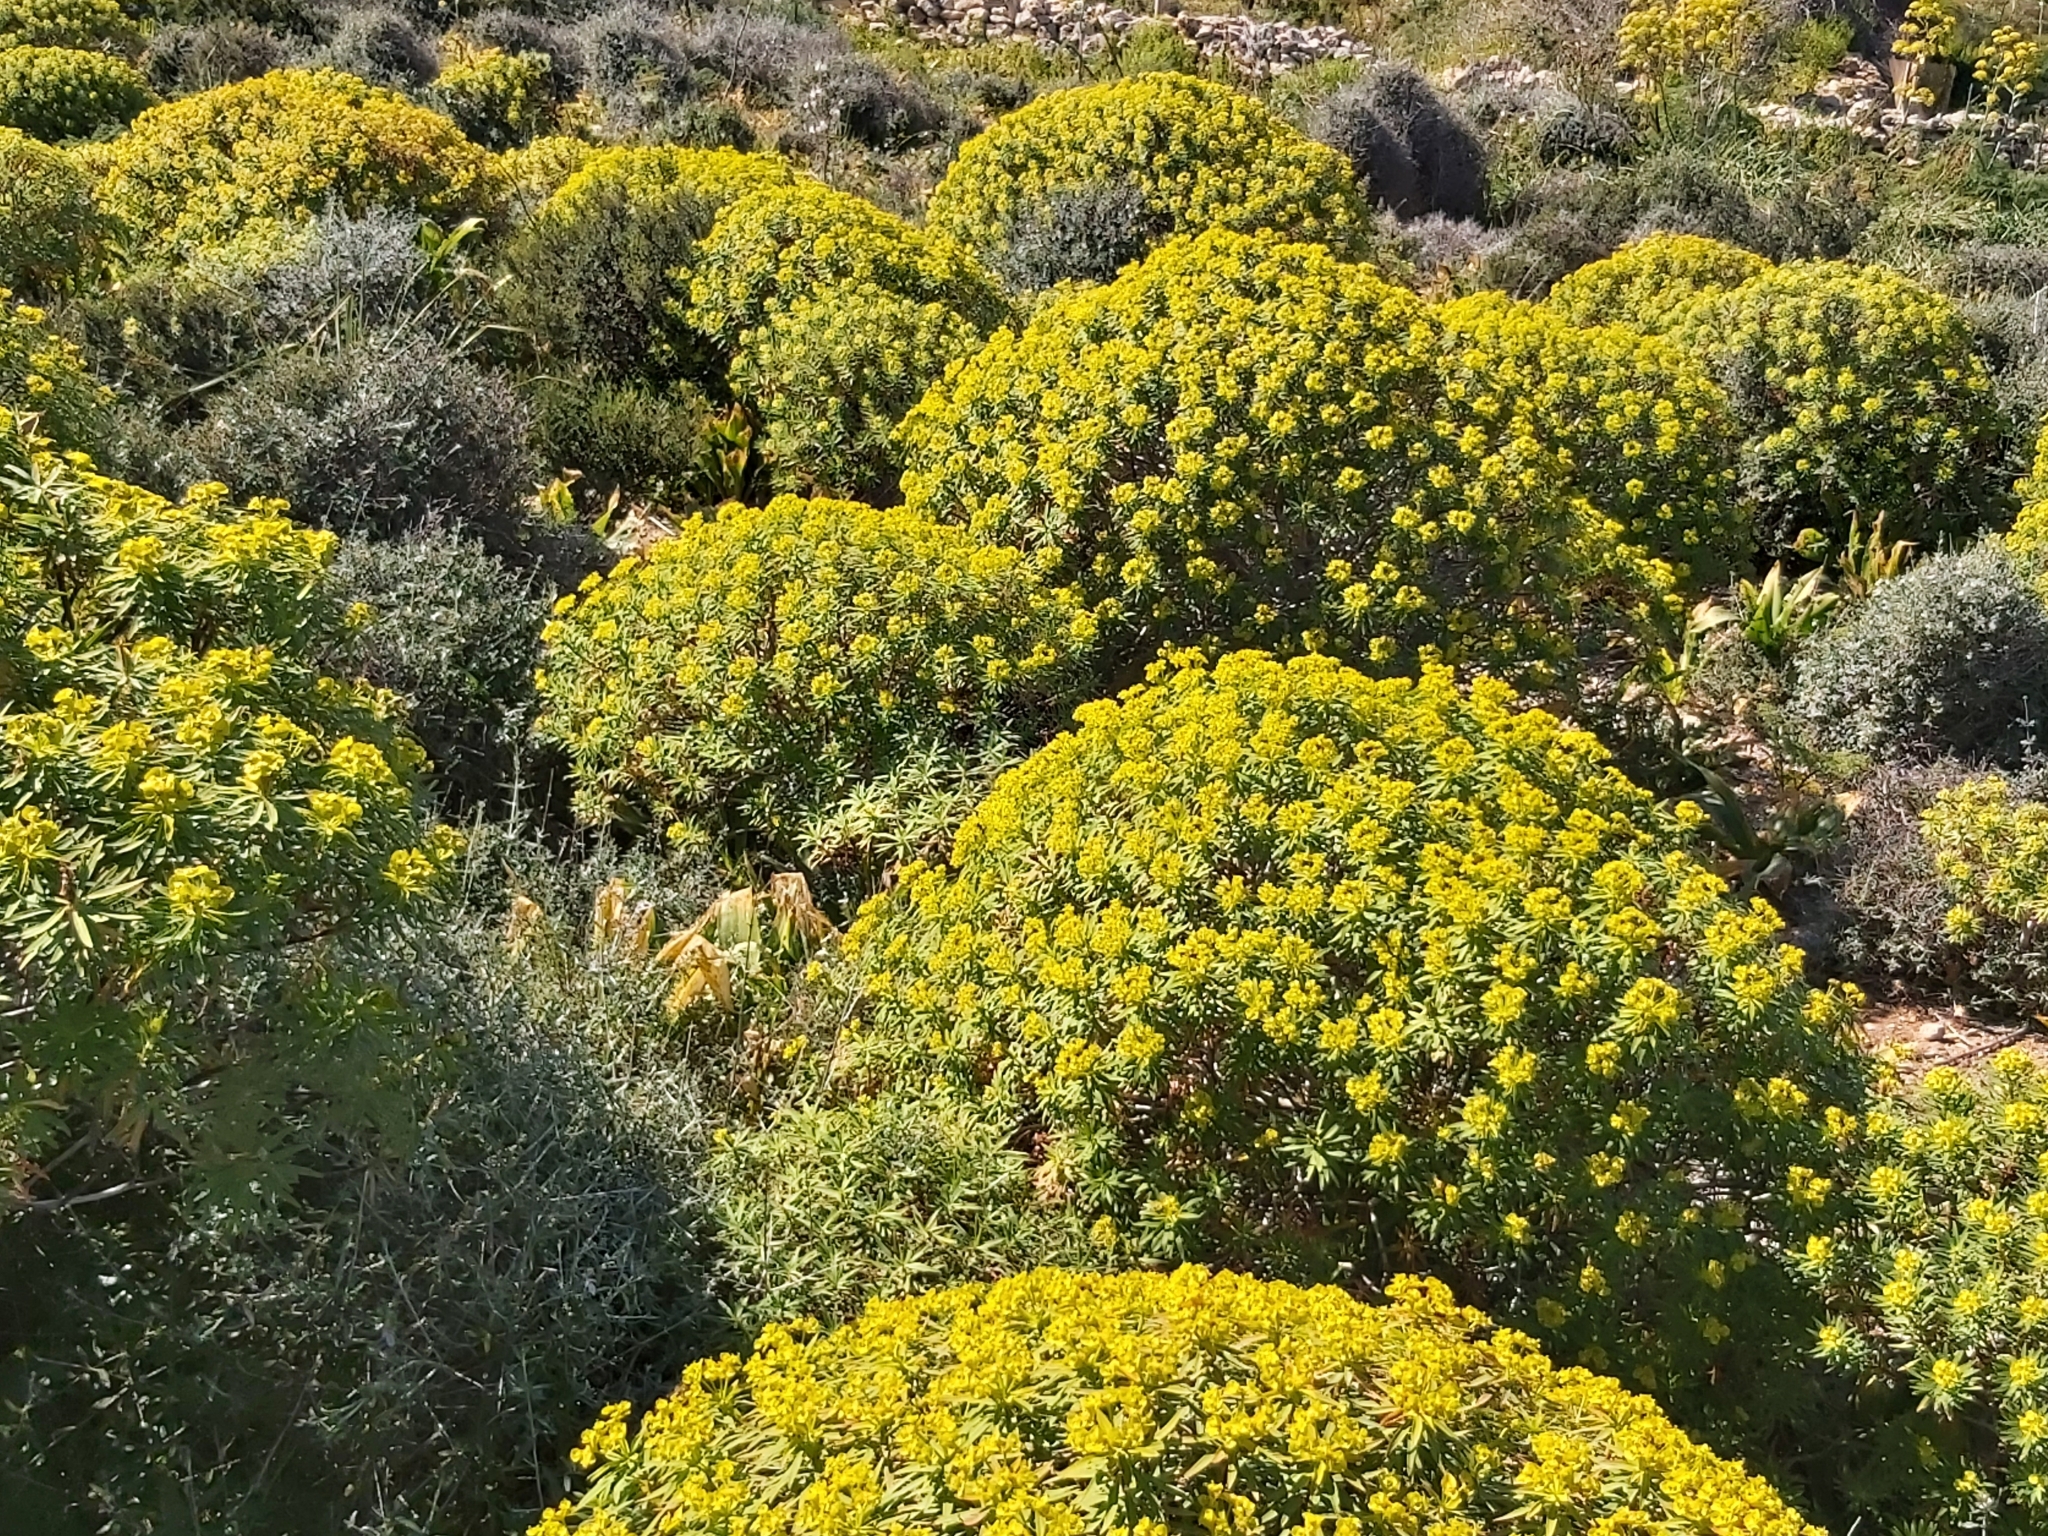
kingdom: Plantae
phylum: Tracheophyta
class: Magnoliopsida
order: Malpighiales
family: Euphorbiaceae
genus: Euphorbia
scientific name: Euphorbia dendroides
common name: Tree spurge
